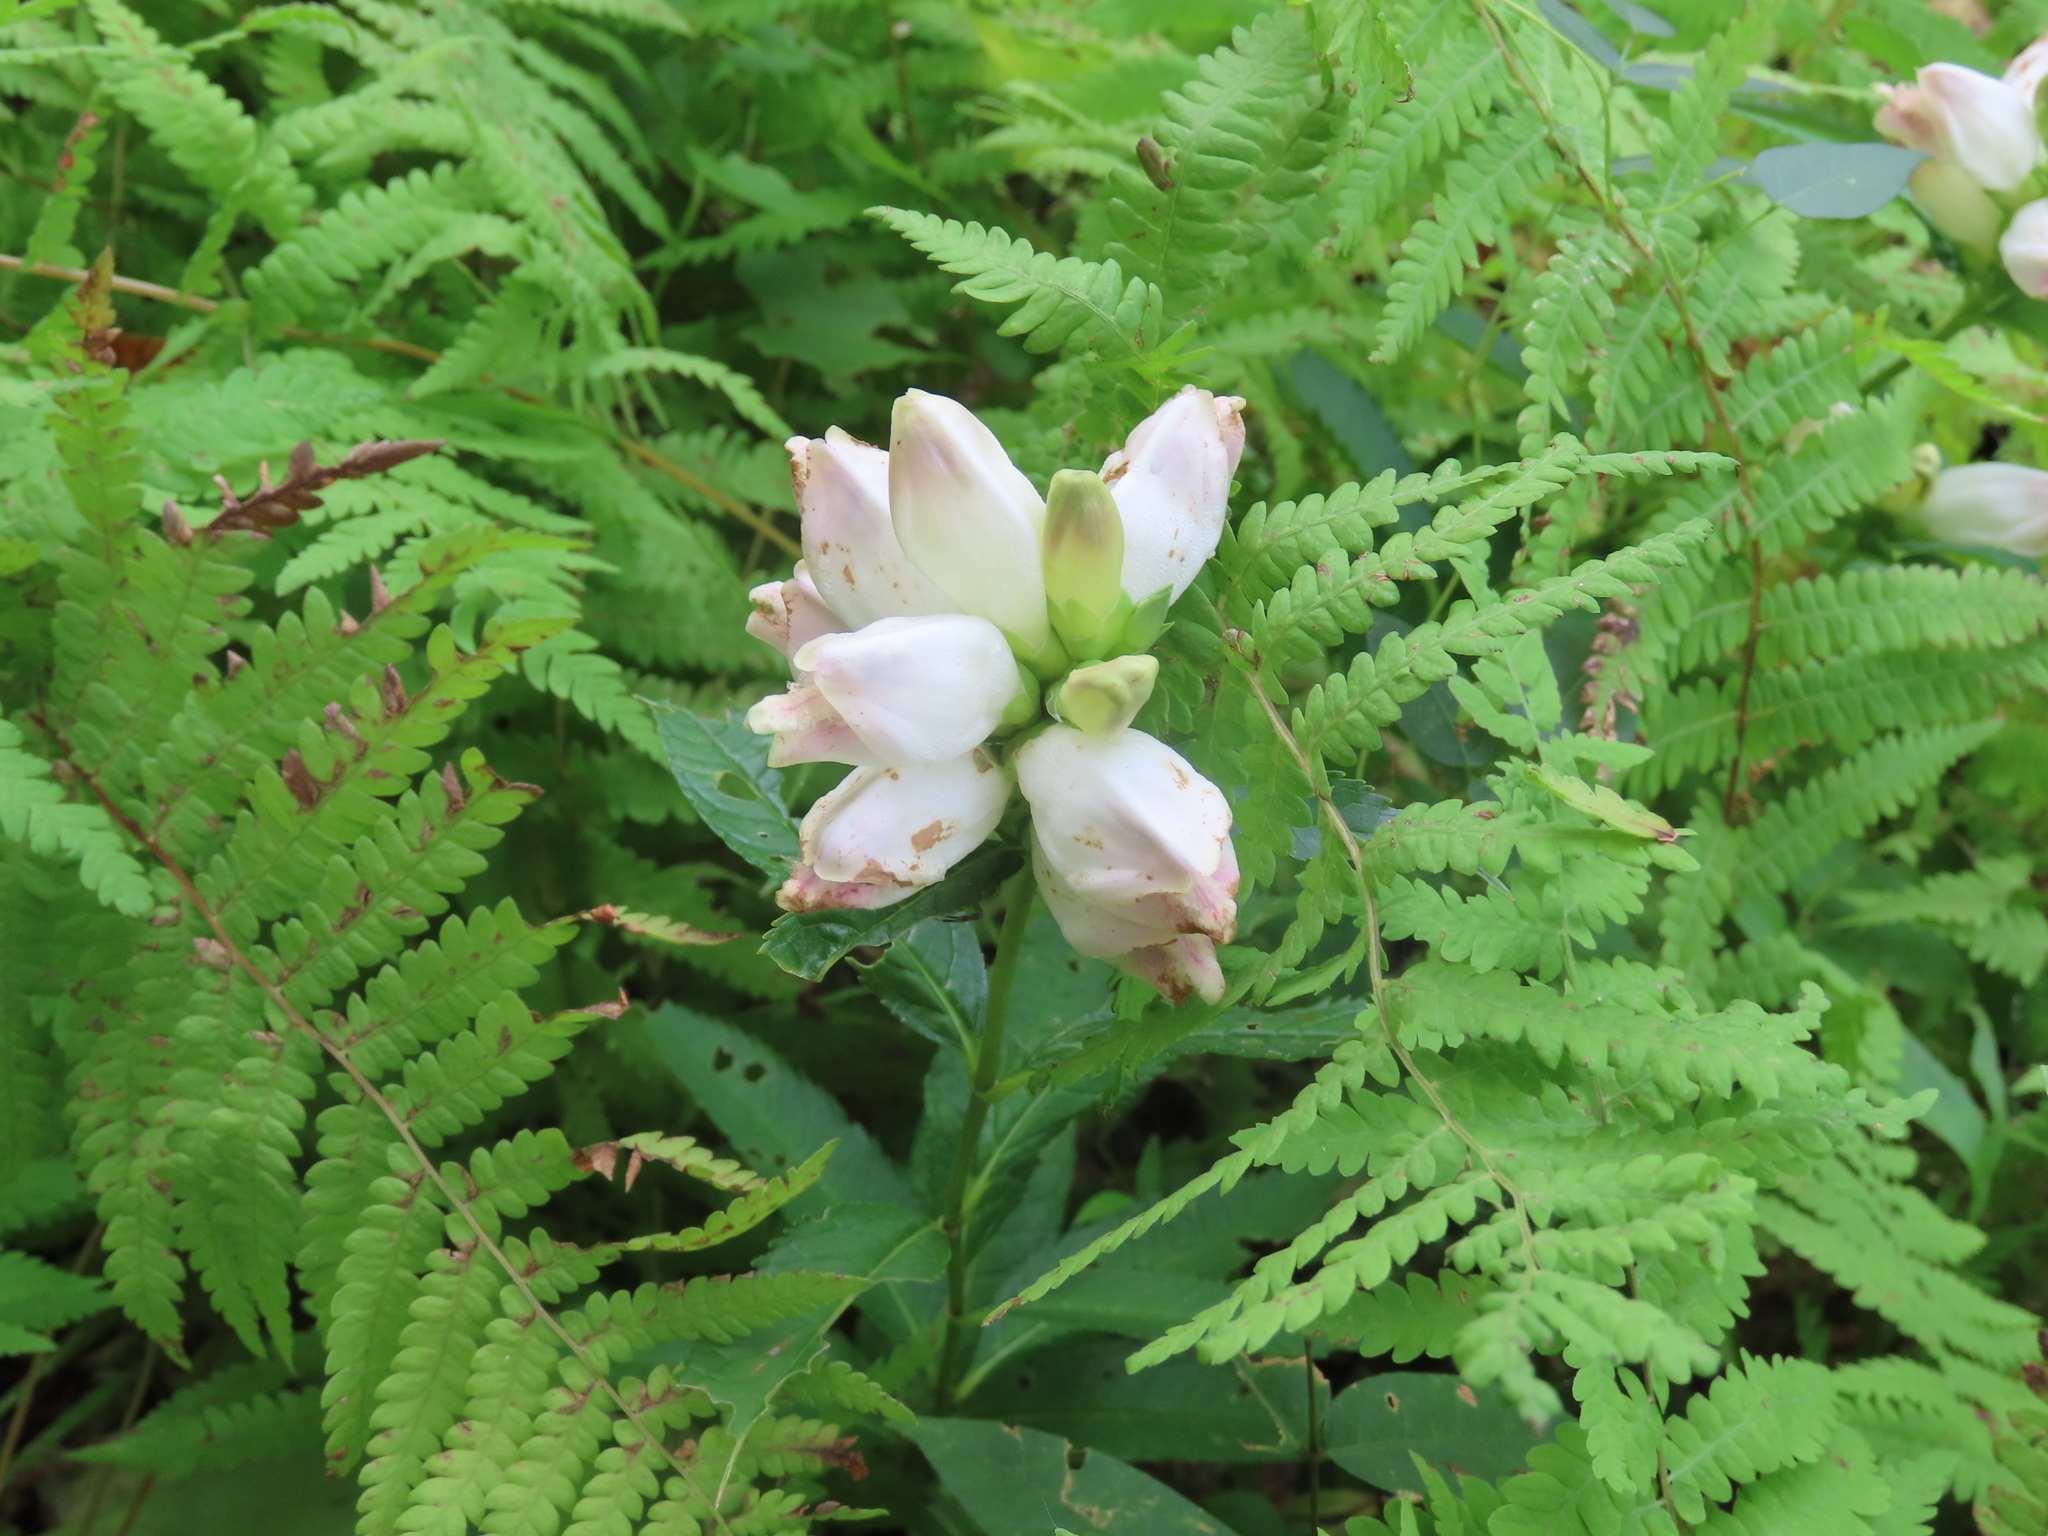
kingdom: Plantae
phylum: Tracheophyta
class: Magnoliopsida
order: Lamiales
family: Plantaginaceae
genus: Chelone
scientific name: Chelone glabra
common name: Snakehead
